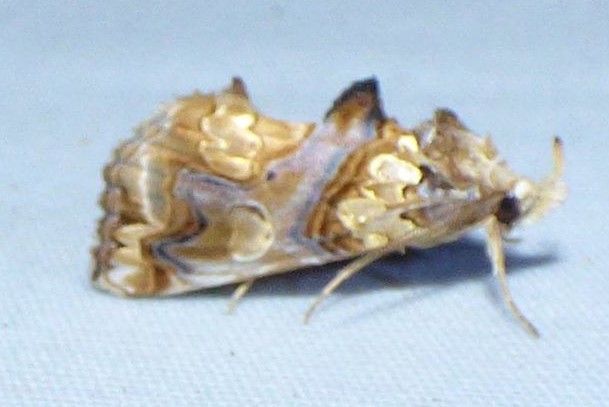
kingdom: Animalia
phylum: Arthropoda
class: Insecta
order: Lepidoptera
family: Erebidae
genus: Plusiodonta
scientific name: Plusiodonta compressipalpis
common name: Moonseed moth
